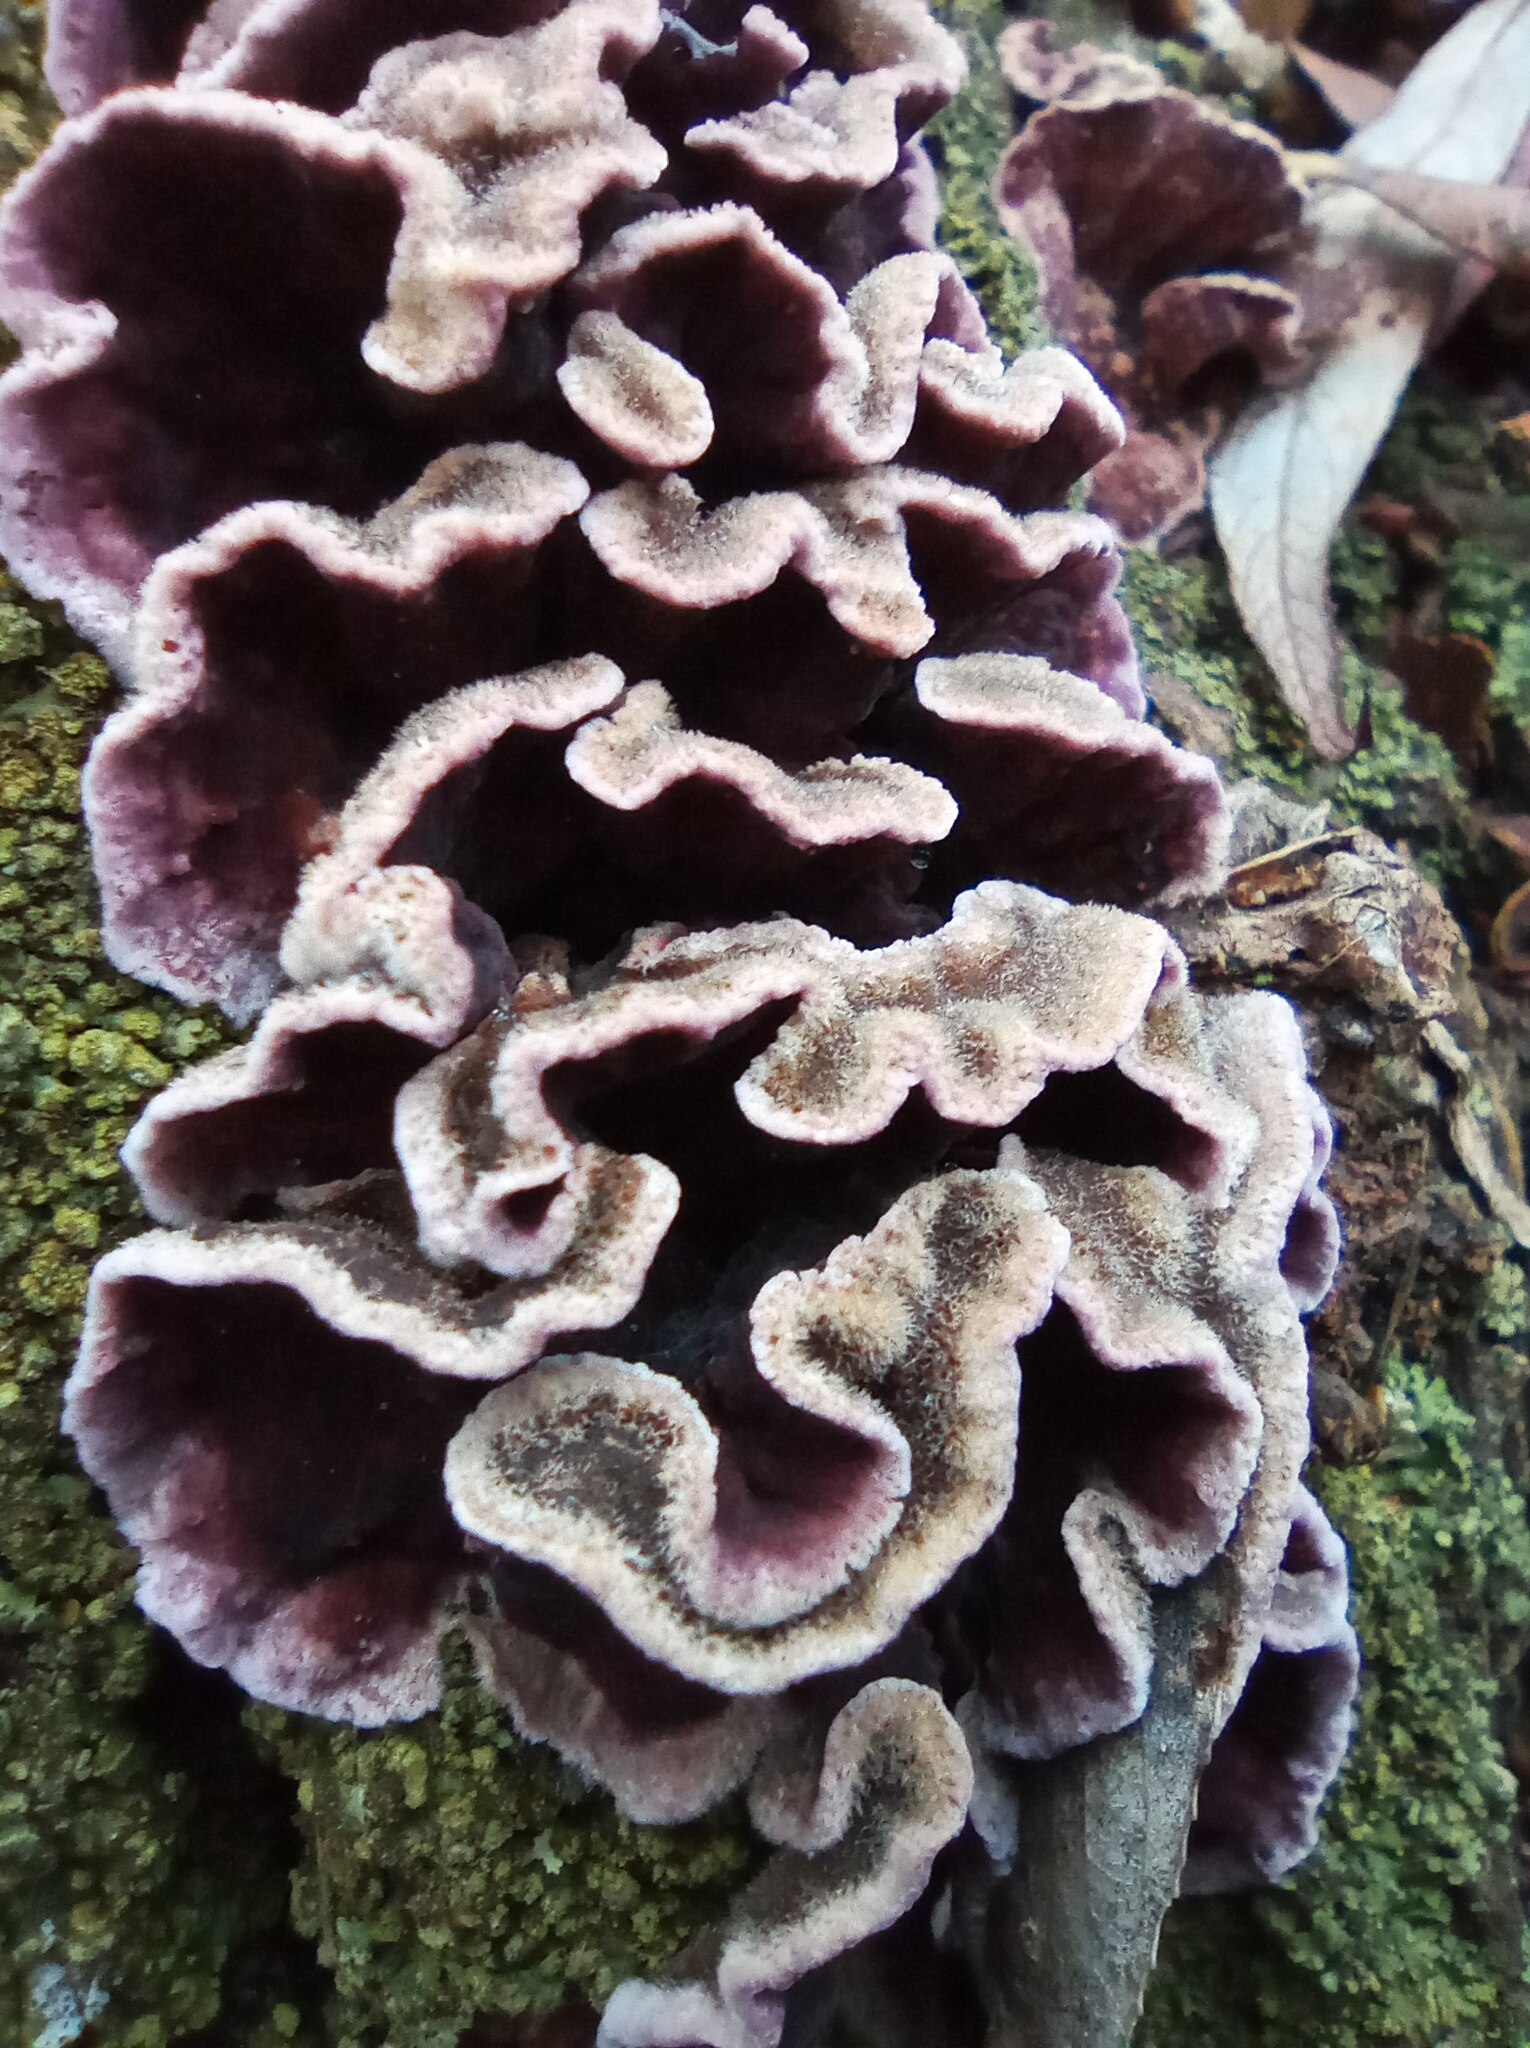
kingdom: Fungi
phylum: Basidiomycota
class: Agaricomycetes
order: Agaricales
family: Cyphellaceae
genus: Chondrostereum
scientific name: Chondrostereum purpureum
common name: Silver leaf disease
